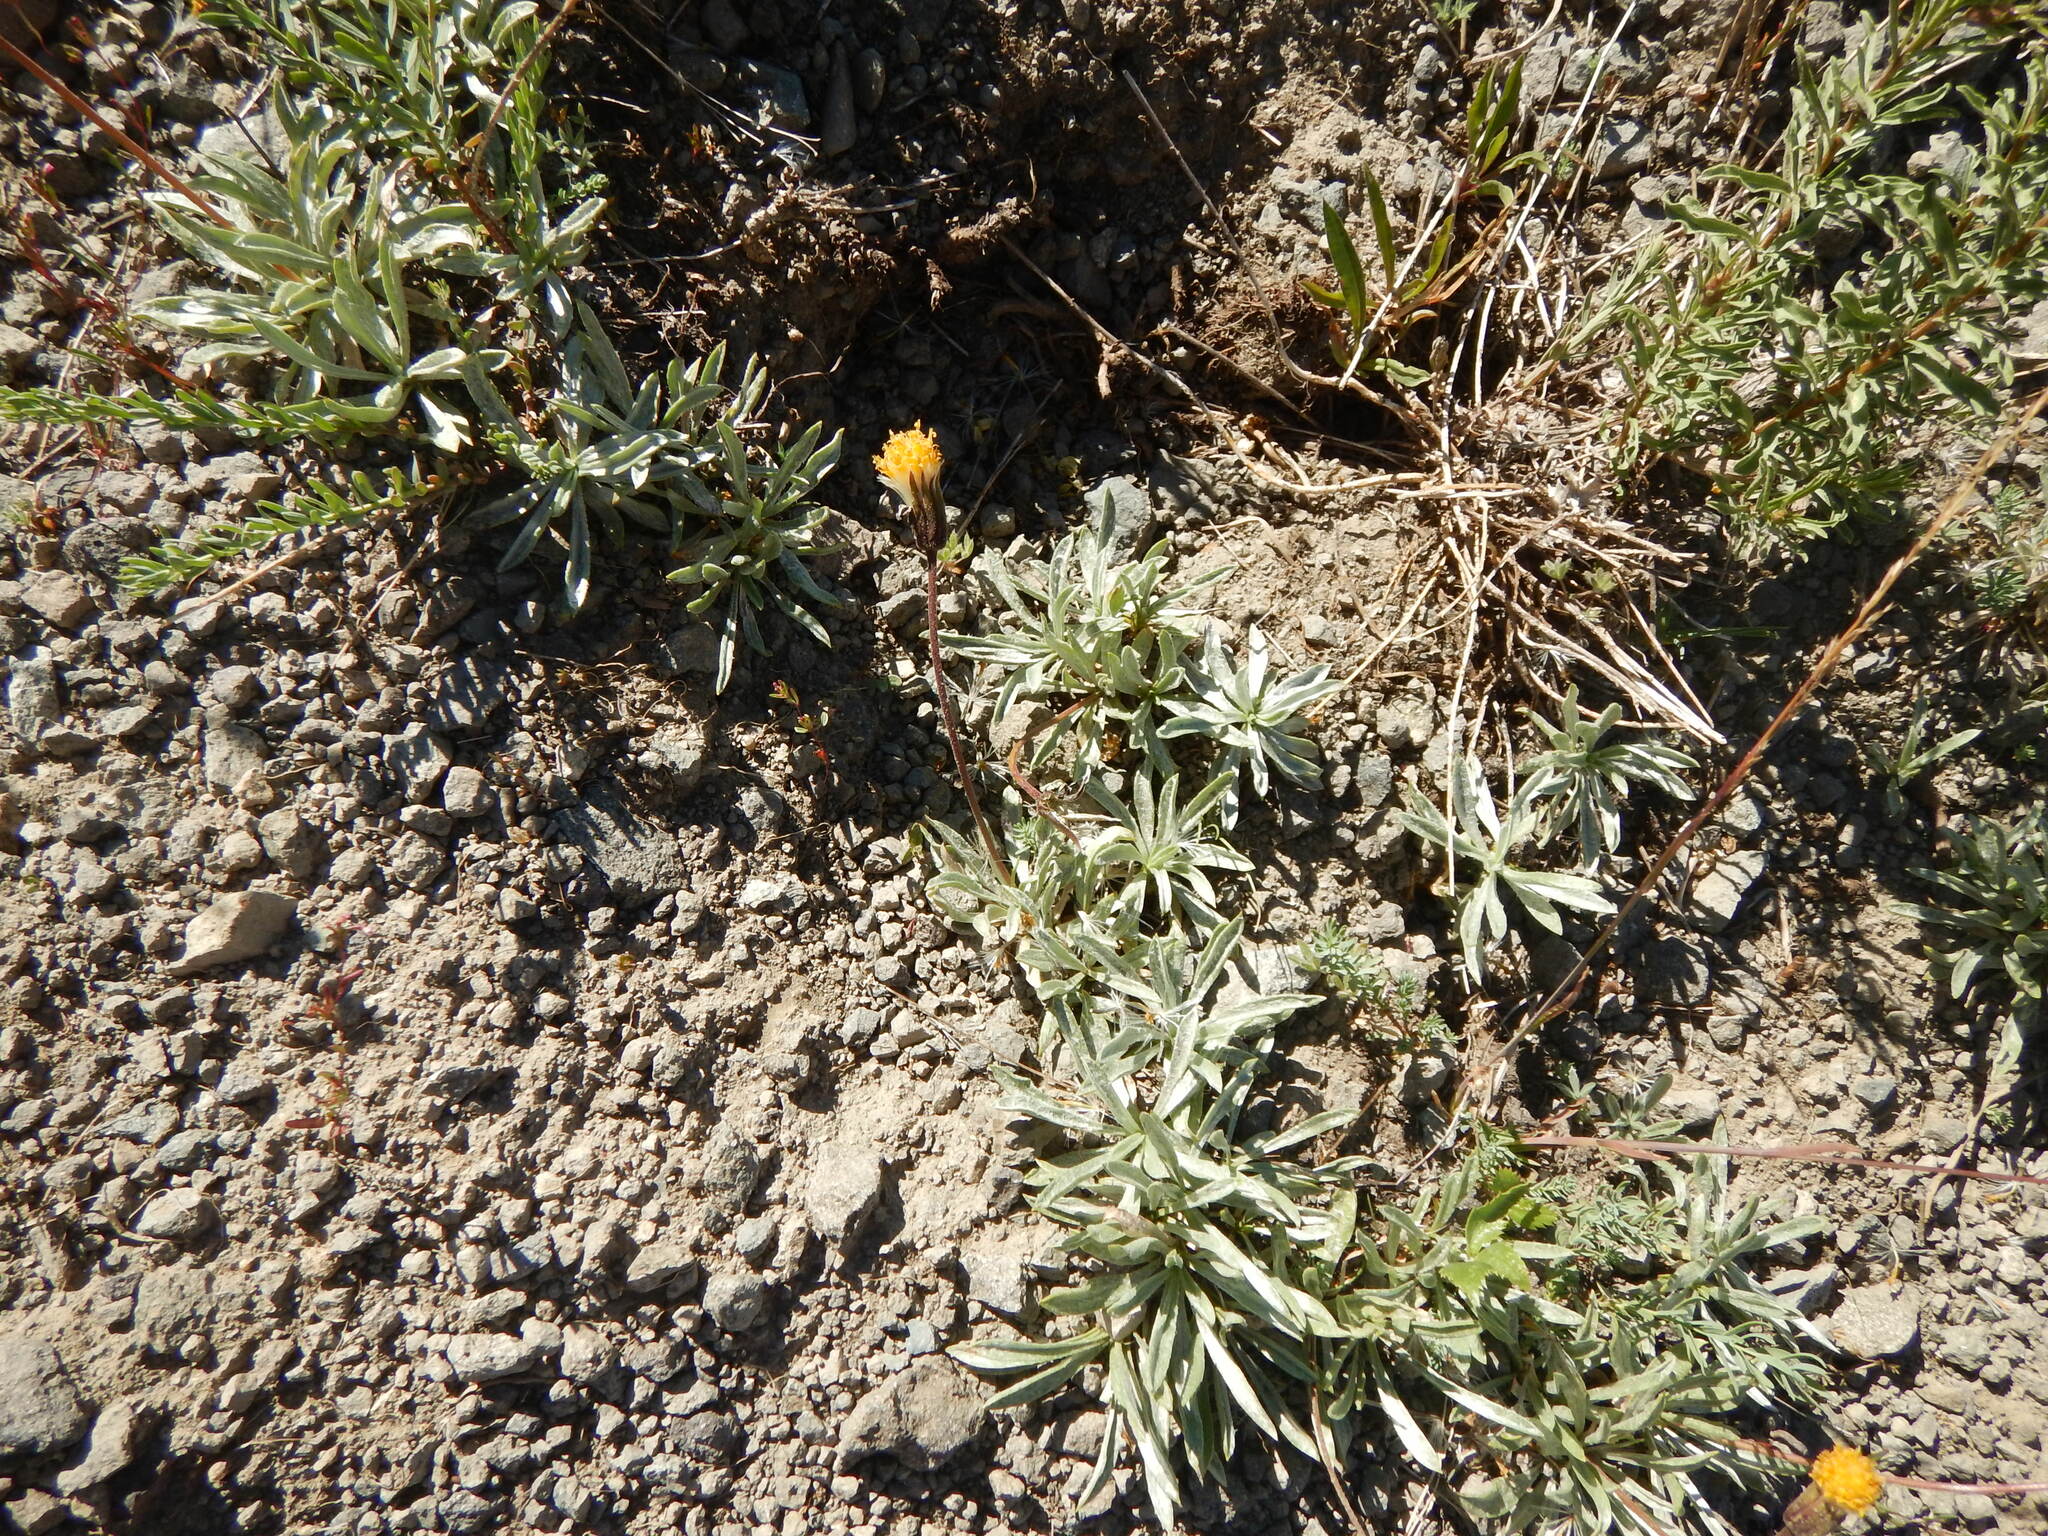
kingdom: Plantae
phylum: Tracheophyta
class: Magnoliopsida
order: Asterales
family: Asteraceae
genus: Raillardella
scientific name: Raillardella argentea
